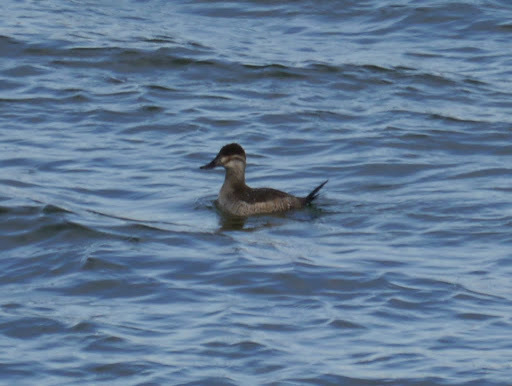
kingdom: Animalia
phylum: Chordata
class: Aves
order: Anseriformes
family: Anatidae
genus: Oxyura
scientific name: Oxyura jamaicensis
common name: Ruddy duck
